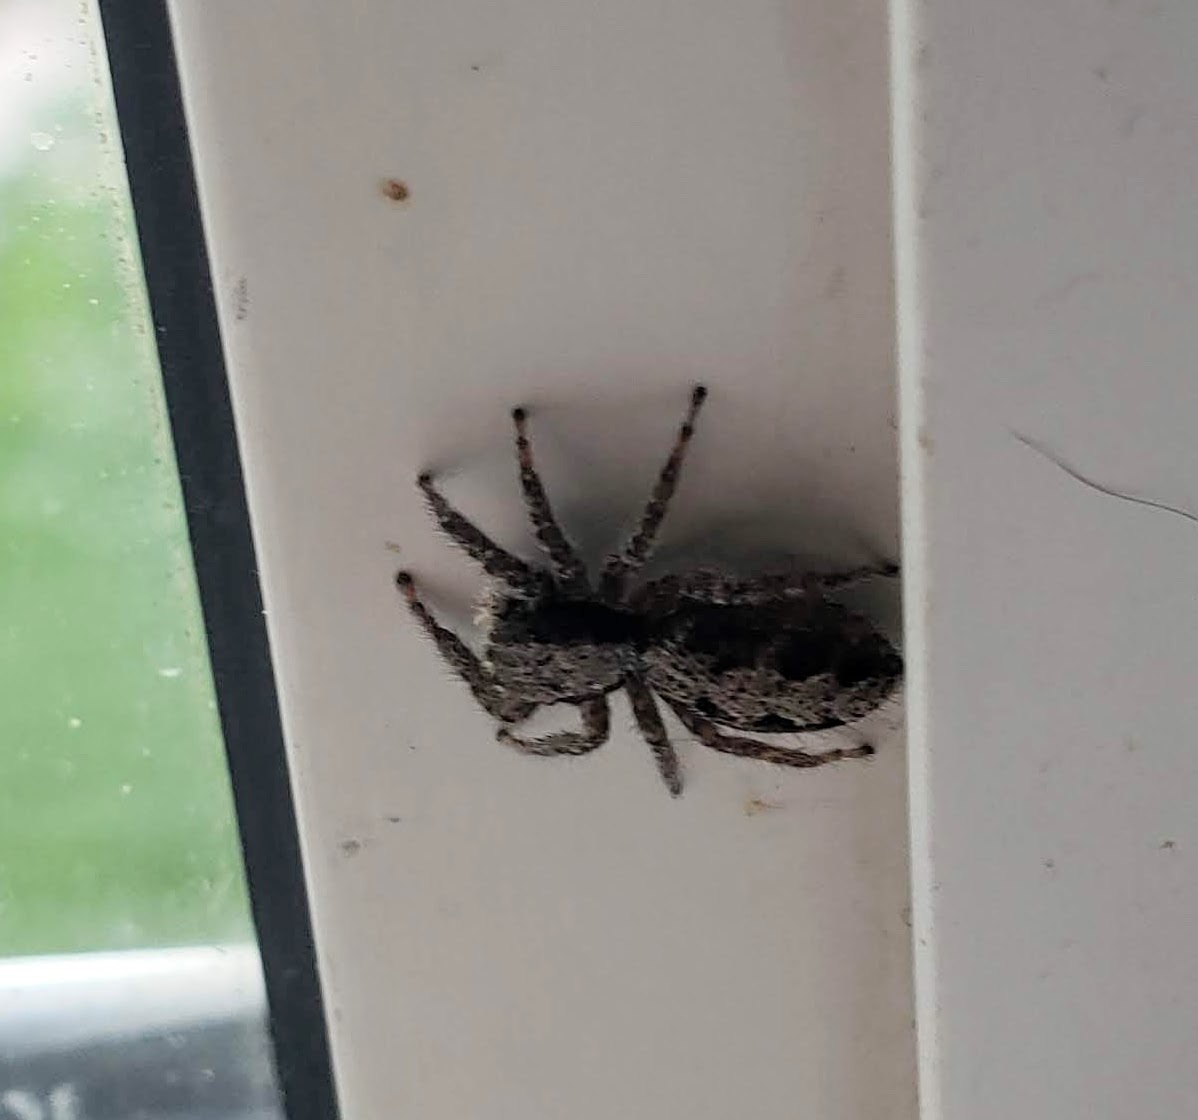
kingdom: Animalia
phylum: Arthropoda
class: Arachnida
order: Araneae
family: Salticidae
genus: Platycryptus
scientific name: Platycryptus californicus
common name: Jumping spiders
